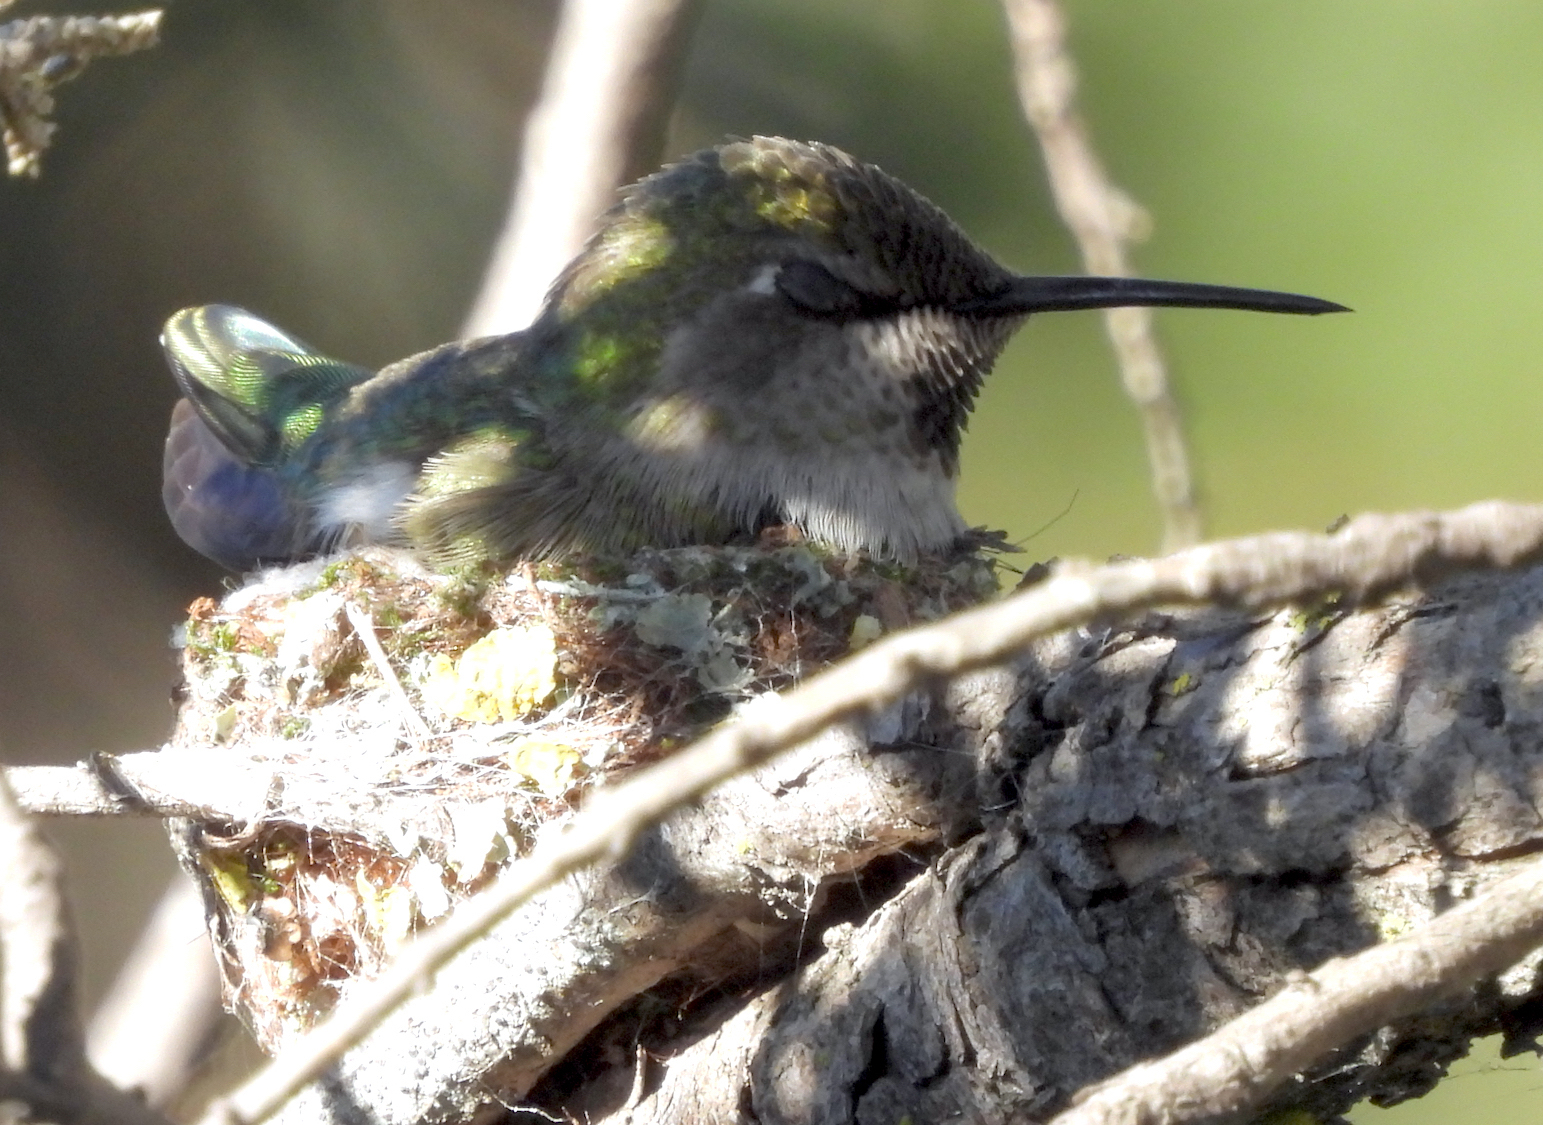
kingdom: Animalia
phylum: Chordata
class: Aves
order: Apodiformes
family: Trochilidae
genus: Calypte
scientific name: Calypte anna
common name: Anna's hummingbird
